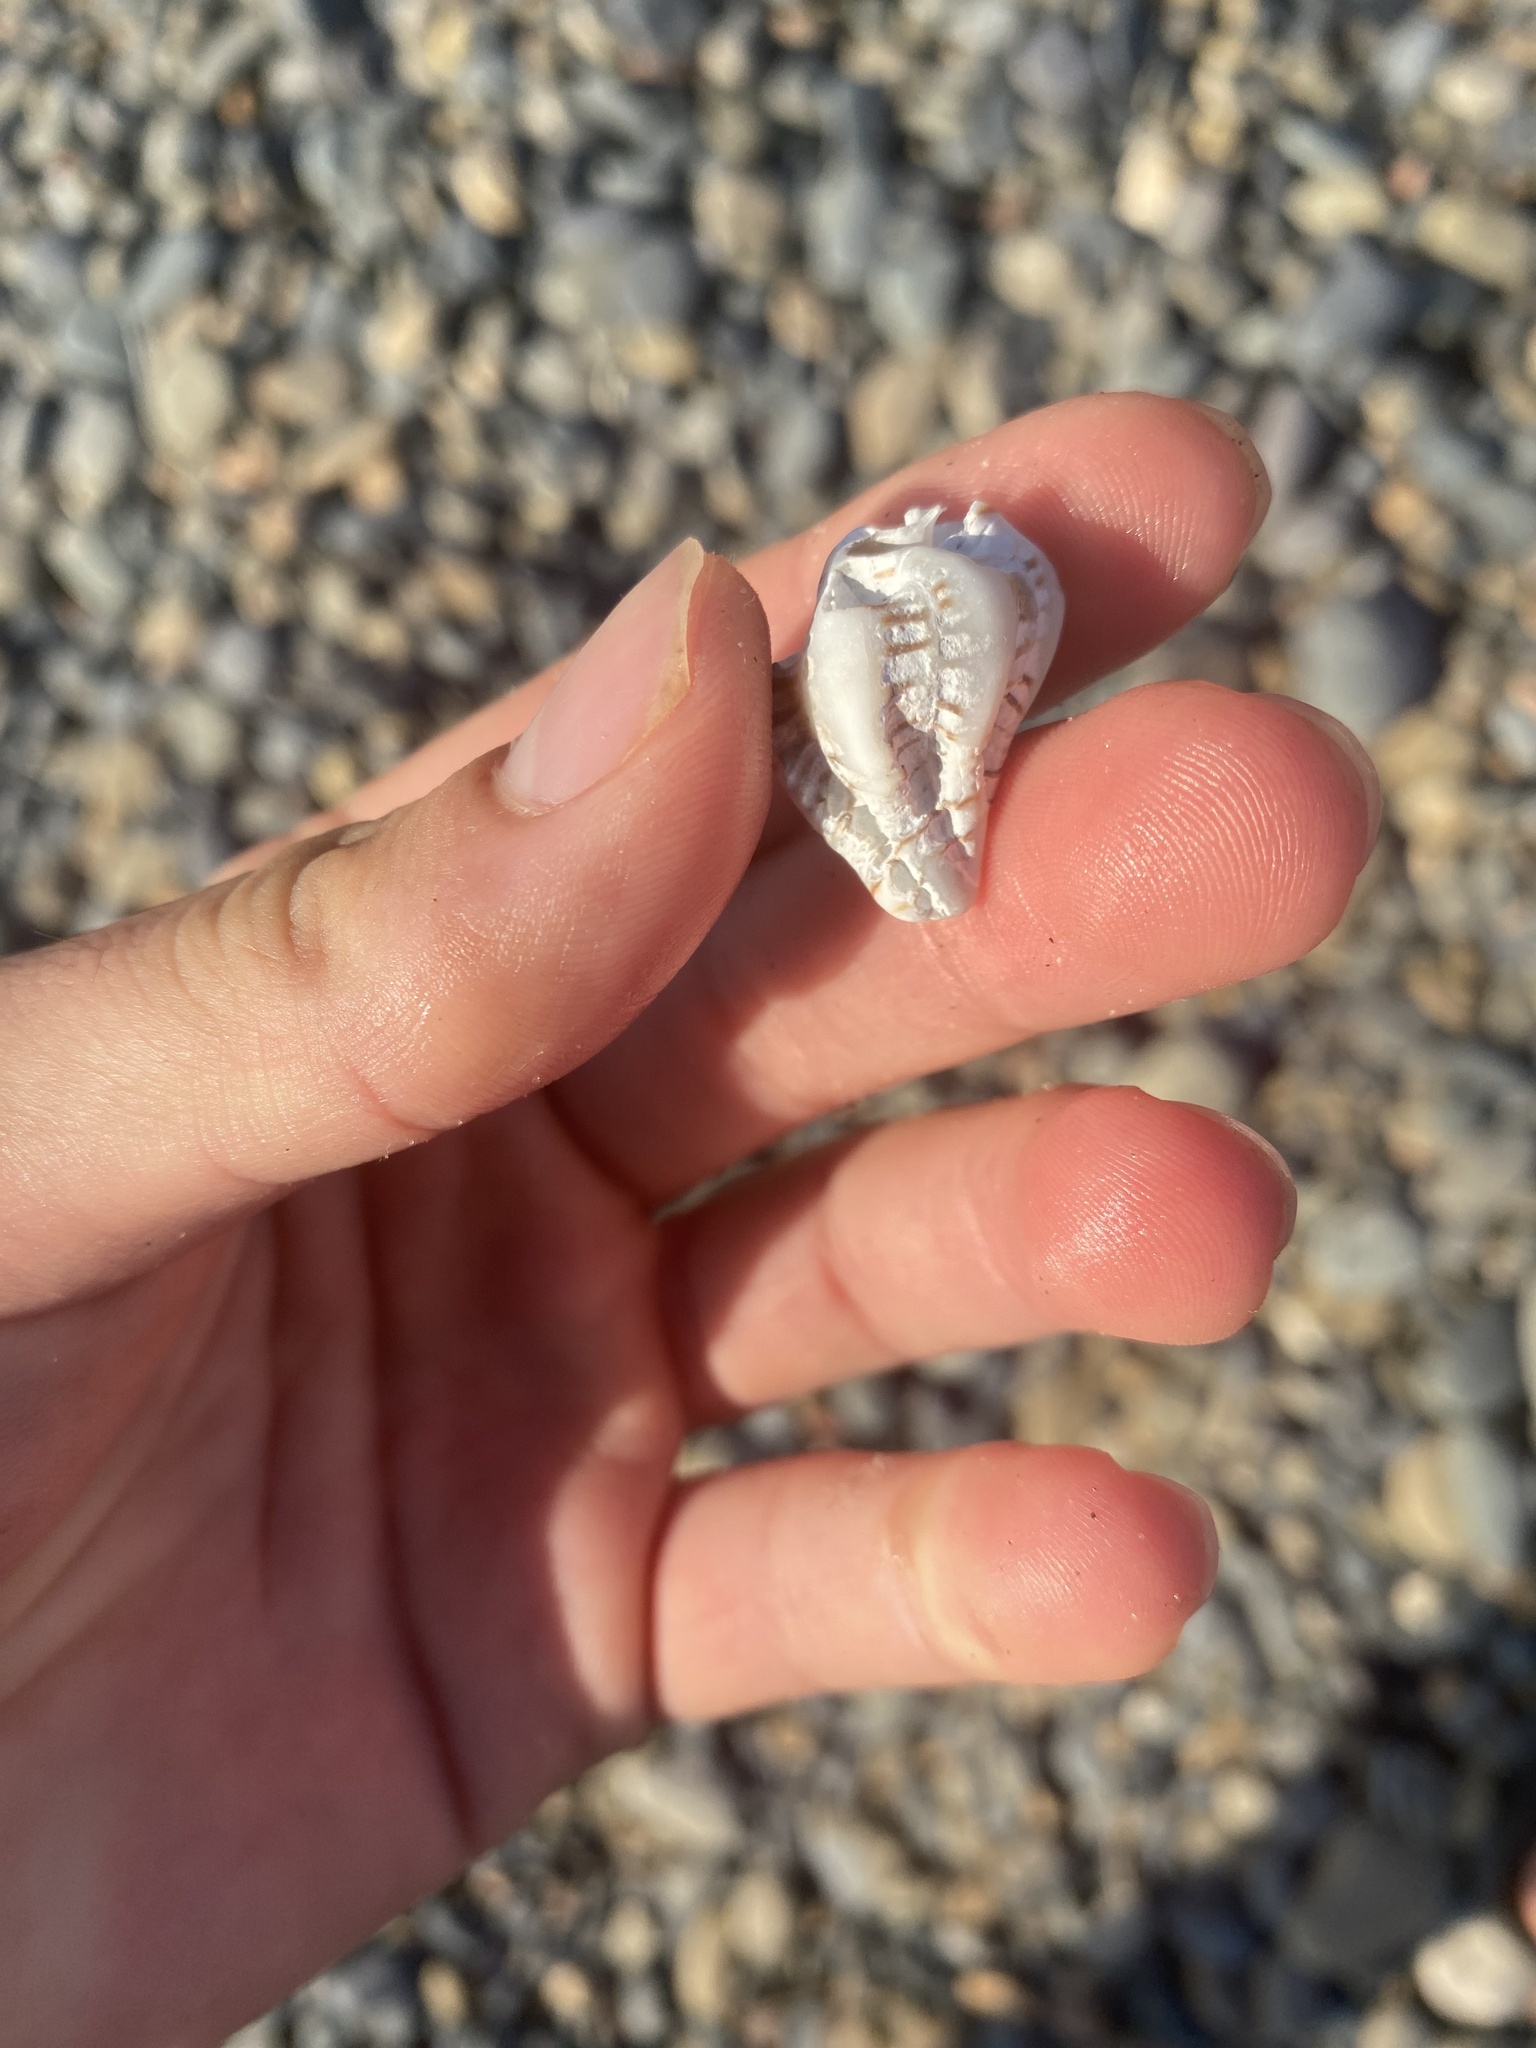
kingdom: Animalia
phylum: Mollusca
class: Gastropoda
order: Neogastropoda
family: Muricidae
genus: Maxwellia
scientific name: Maxwellia gemma
